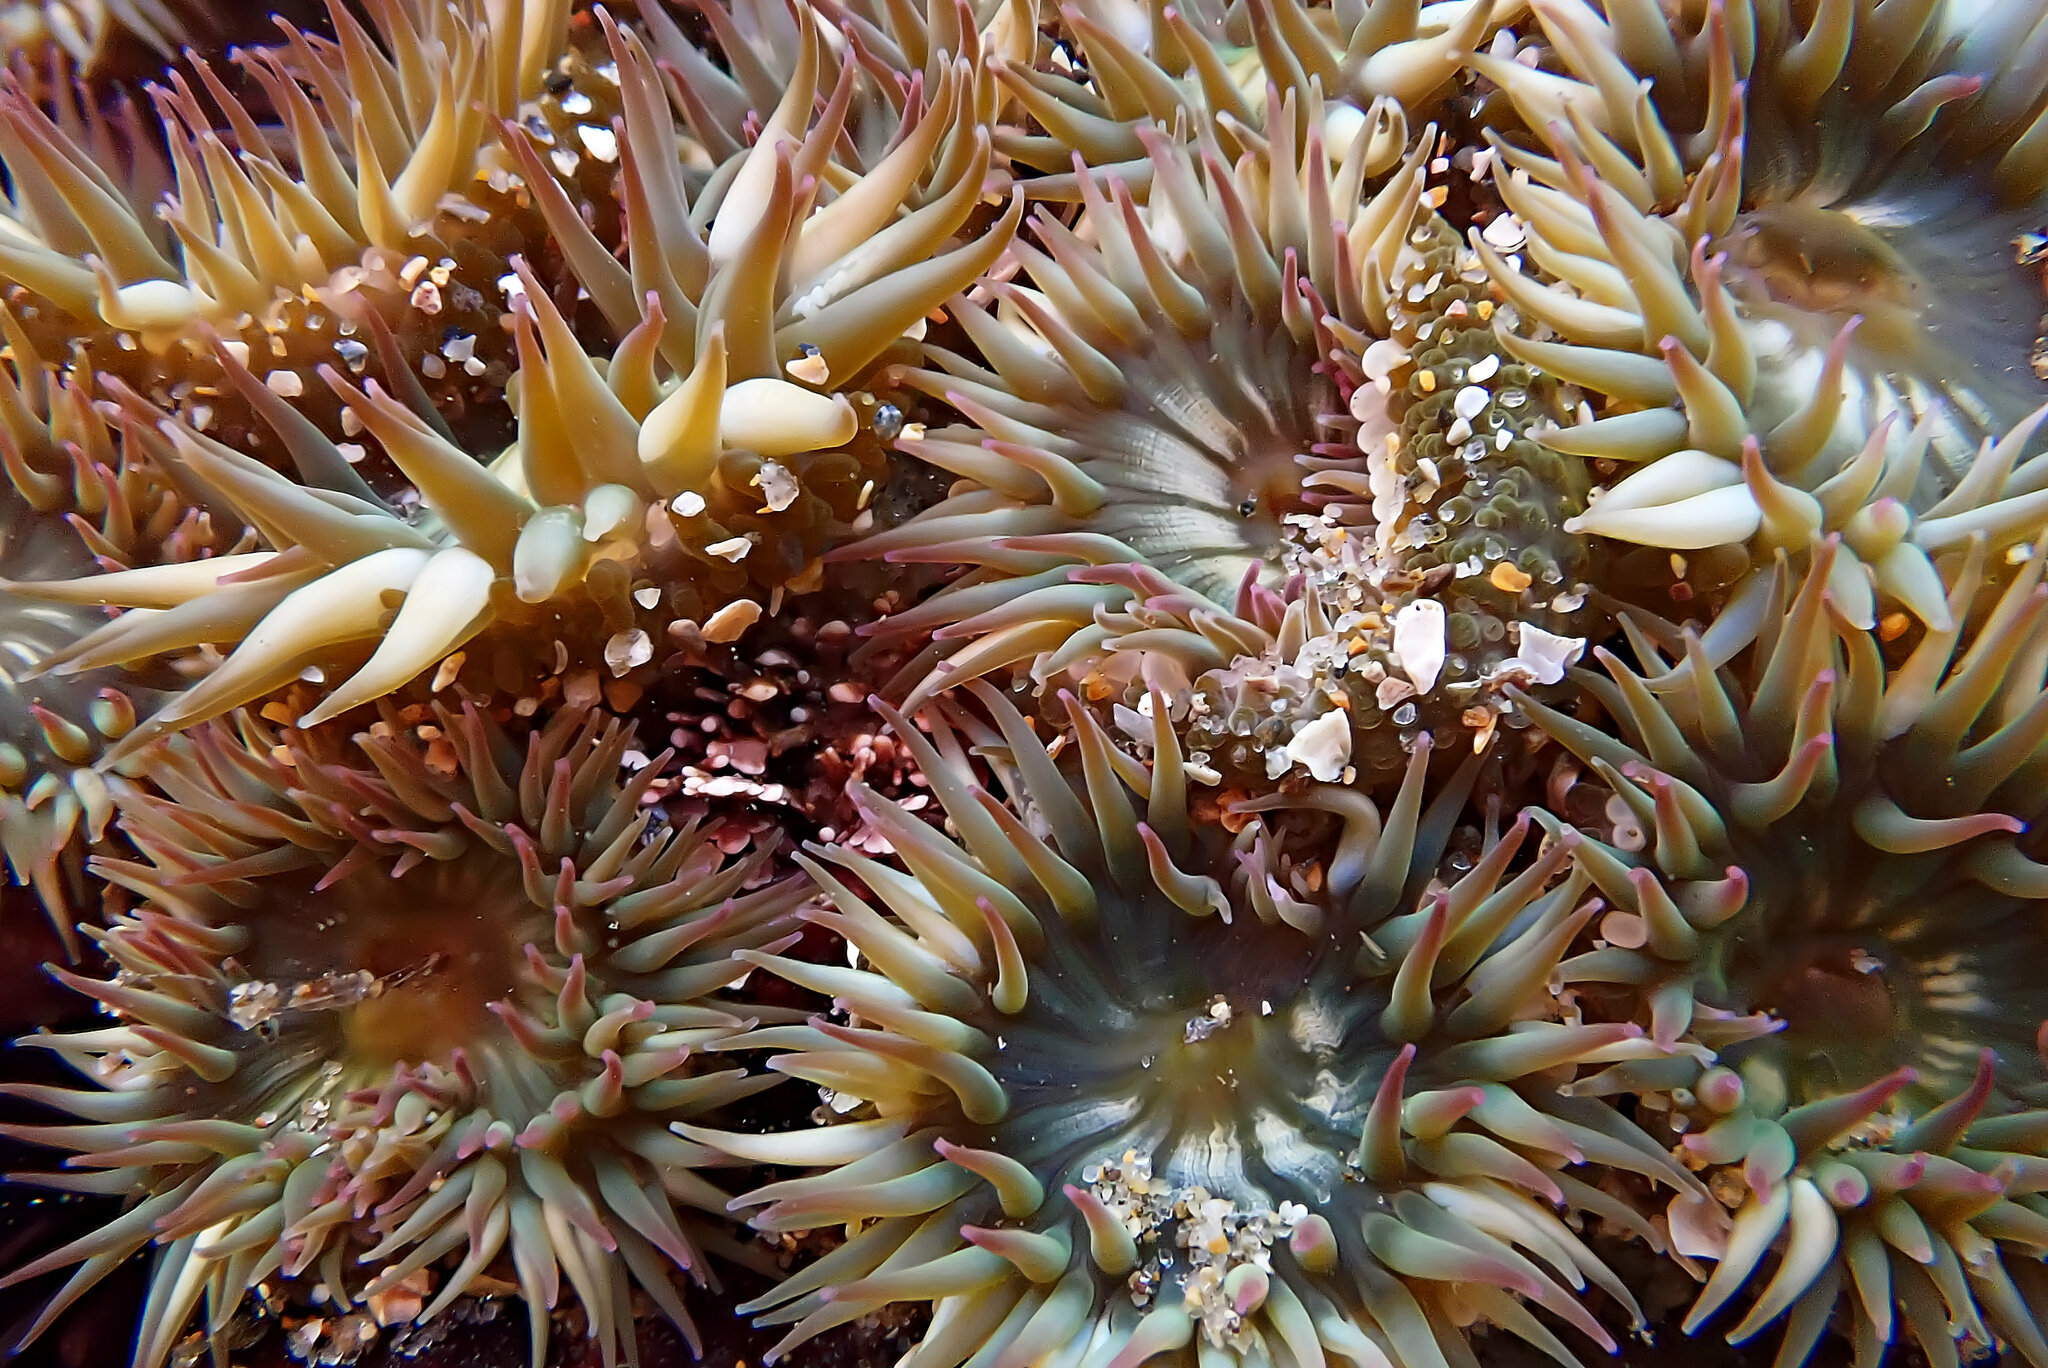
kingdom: Animalia
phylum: Cnidaria
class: Anthozoa
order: Actiniaria
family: Actiniidae
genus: Anthopleura
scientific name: Anthopleura elegantissima
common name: Clonal anemone
